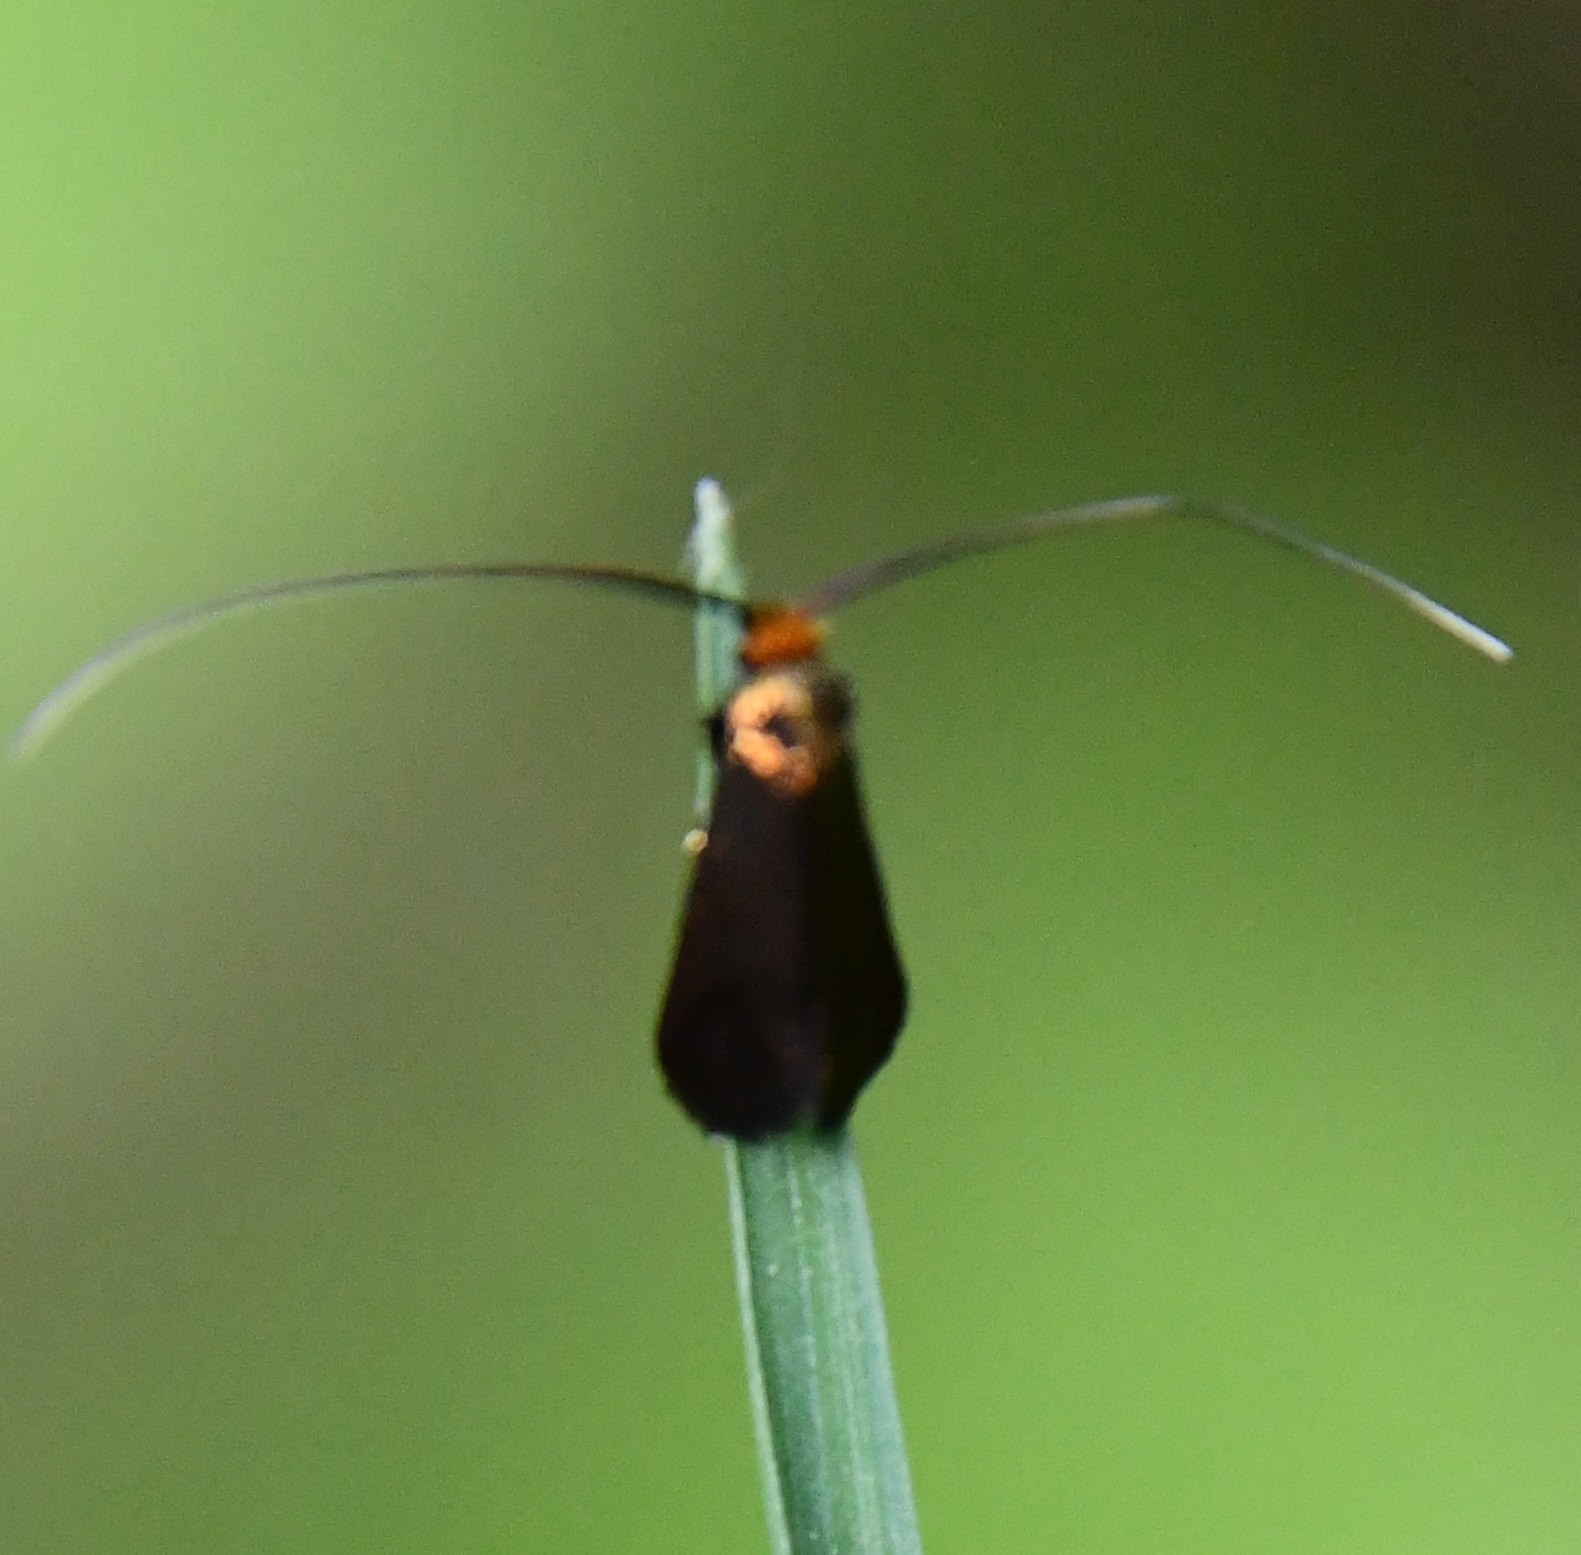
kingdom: Animalia
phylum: Arthropoda
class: Insecta
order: Lepidoptera
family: Adelidae
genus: Cauchas
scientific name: Cauchas canalella
